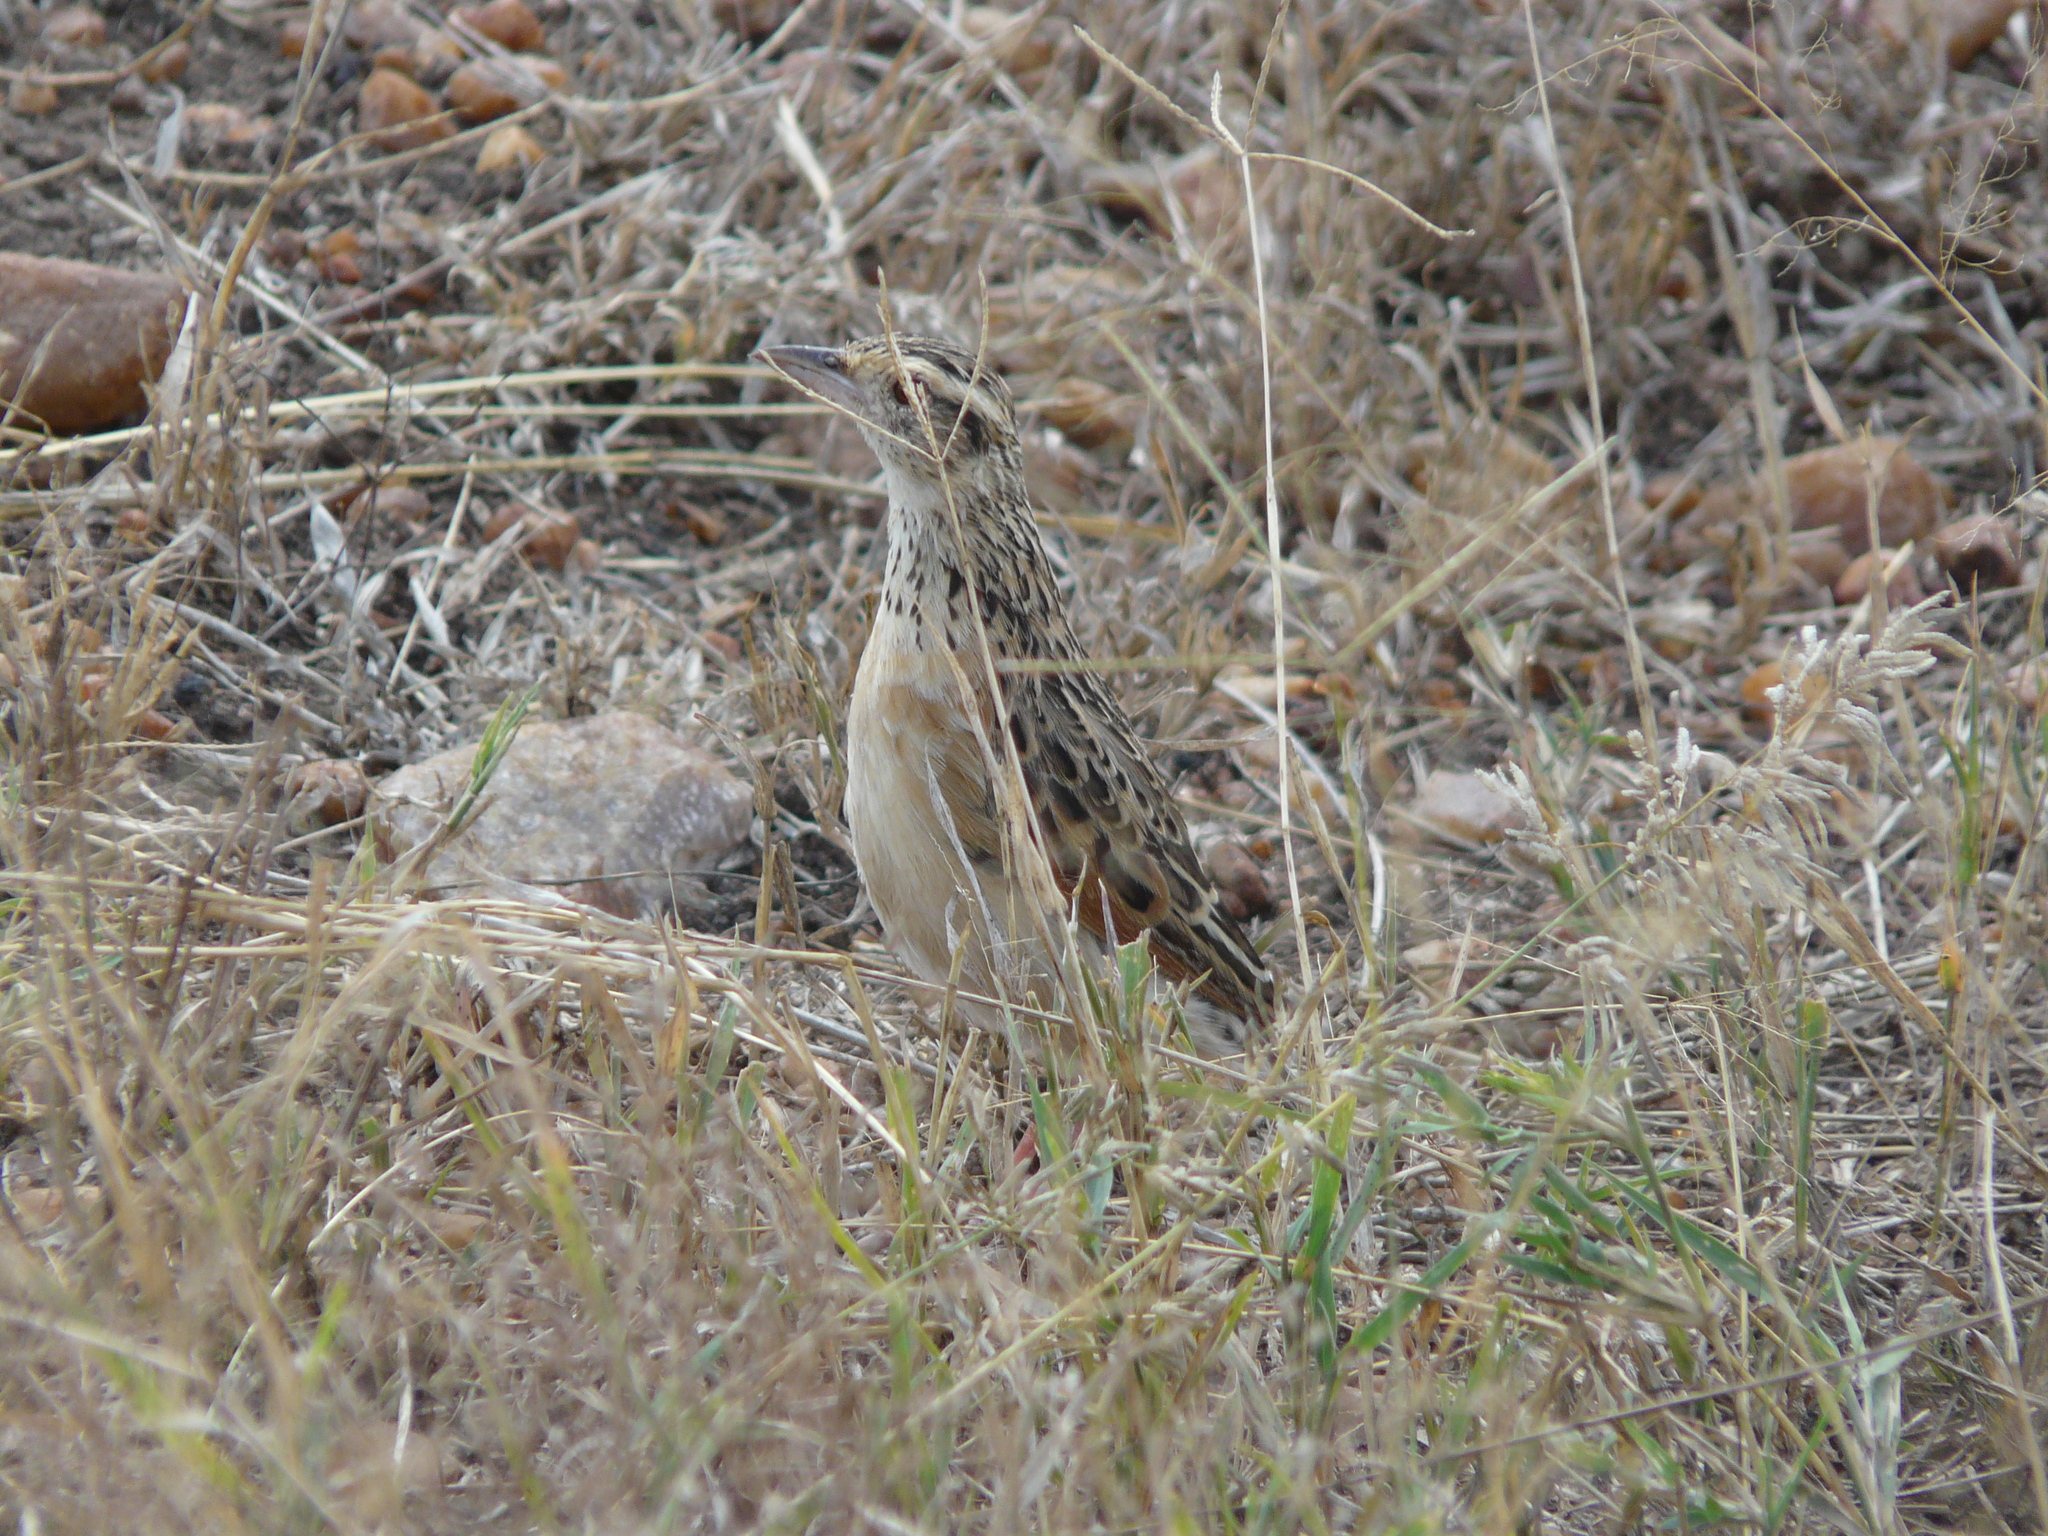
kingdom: Animalia
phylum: Chordata
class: Aves
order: Passeriformes
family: Alaudidae
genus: Mirafra
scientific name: Mirafra africana
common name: Rufous-naped lark
